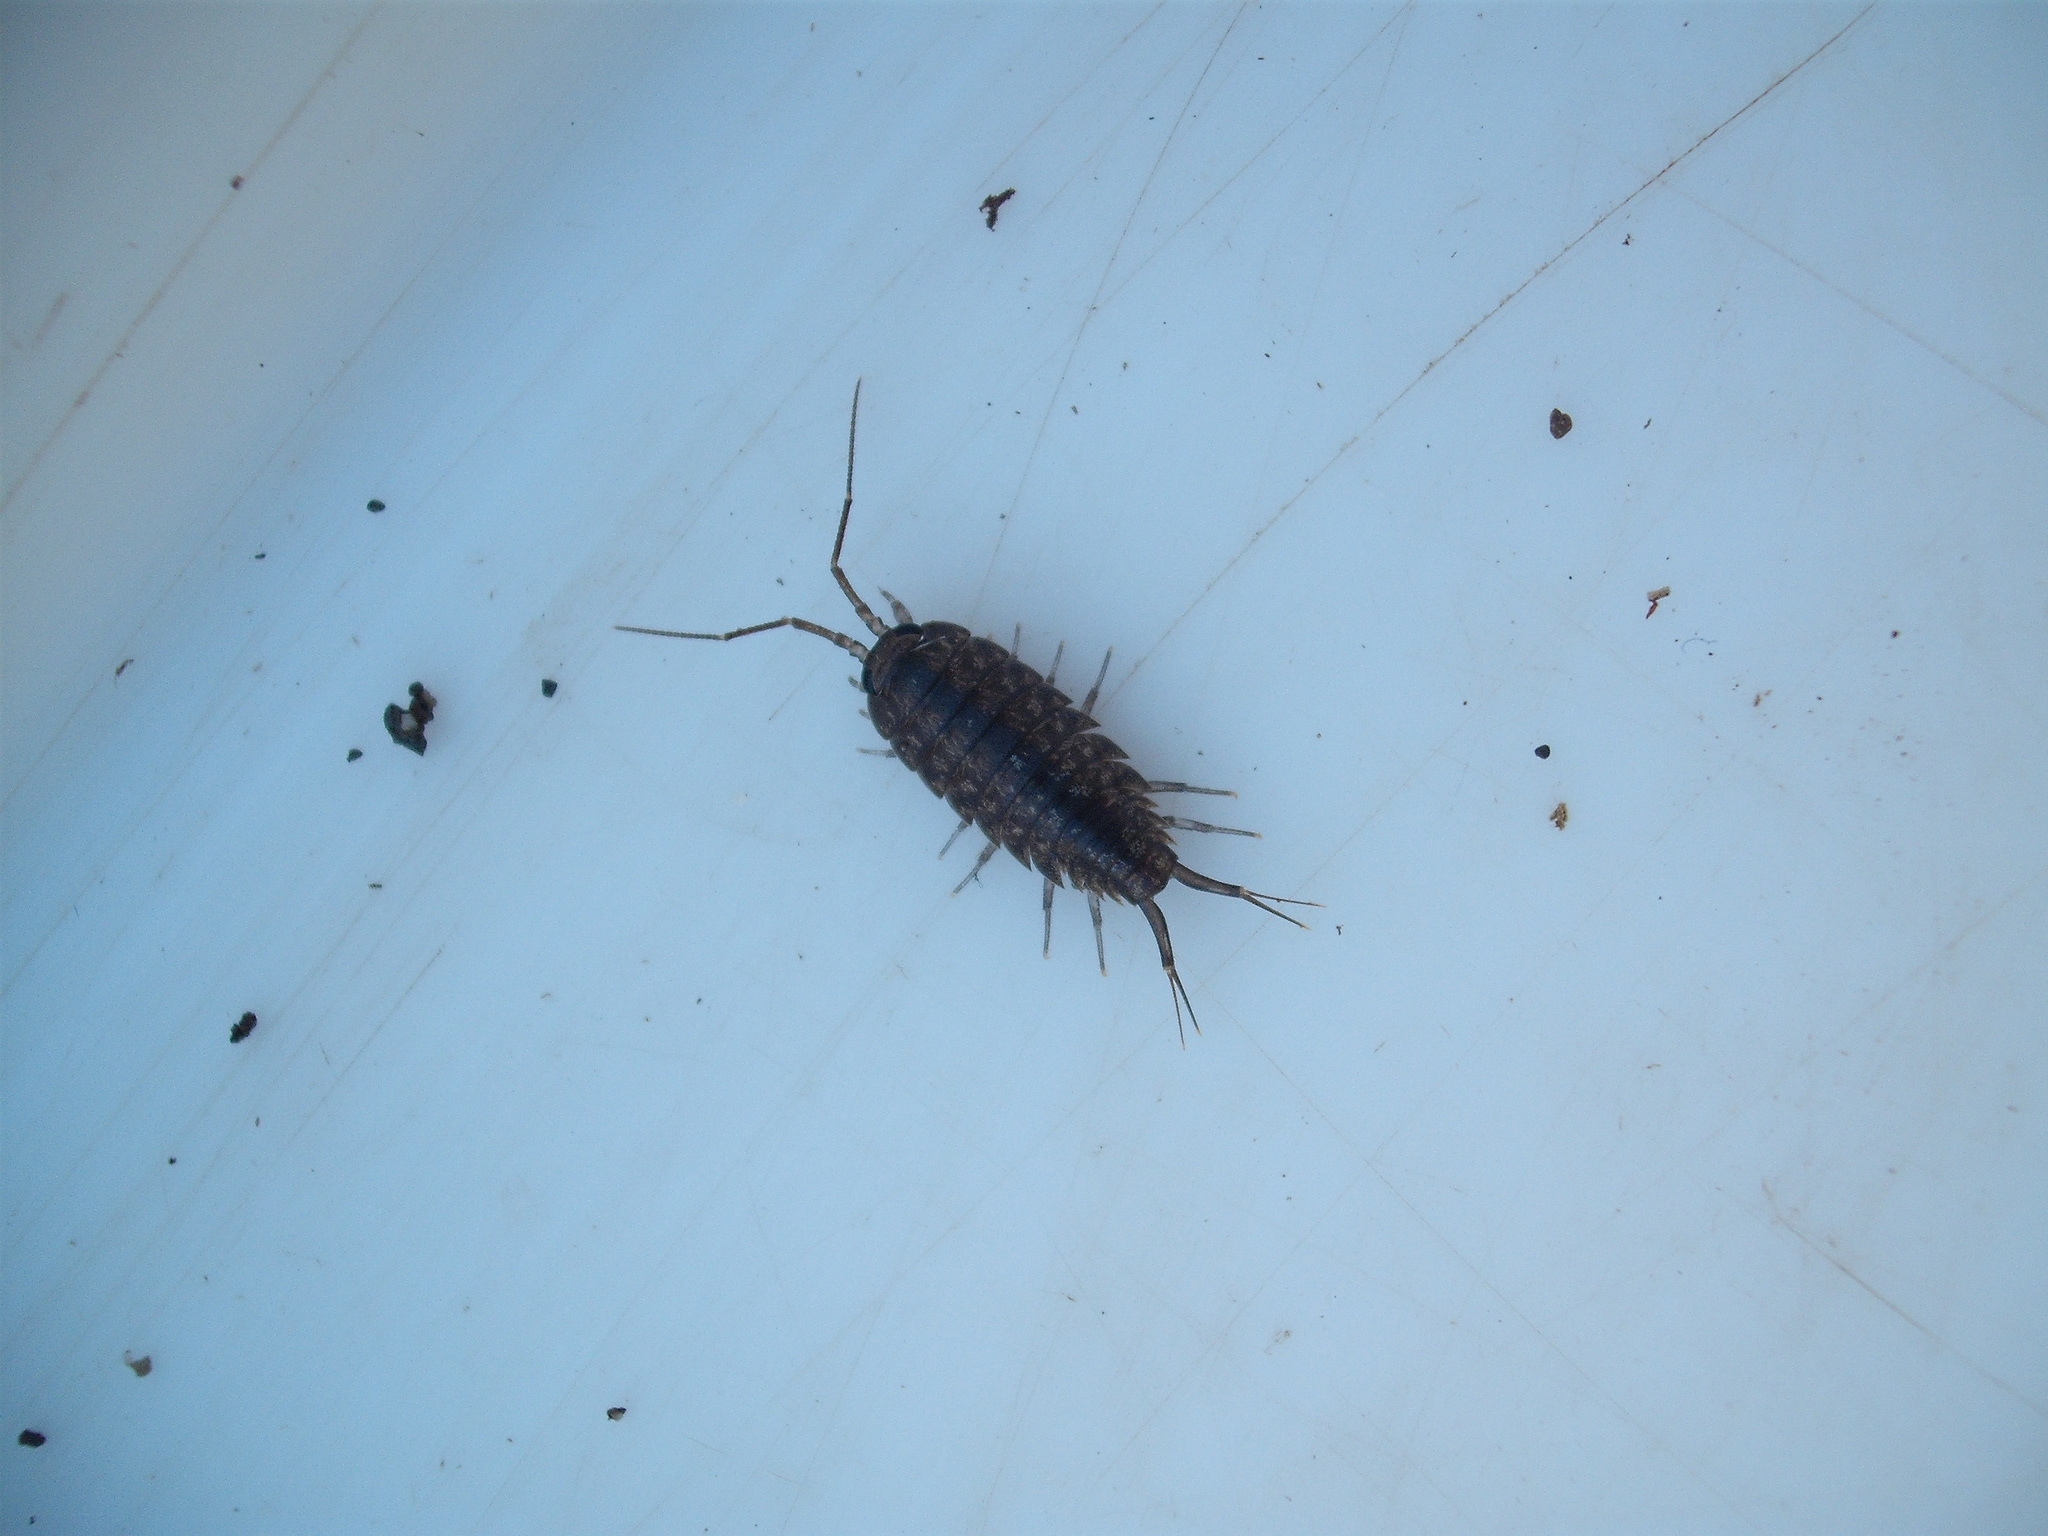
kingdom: Animalia
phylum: Arthropoda
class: Malacostraca
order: Isopoda
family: Ligiidae
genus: Ligia
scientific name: Ligia novizealandiae
